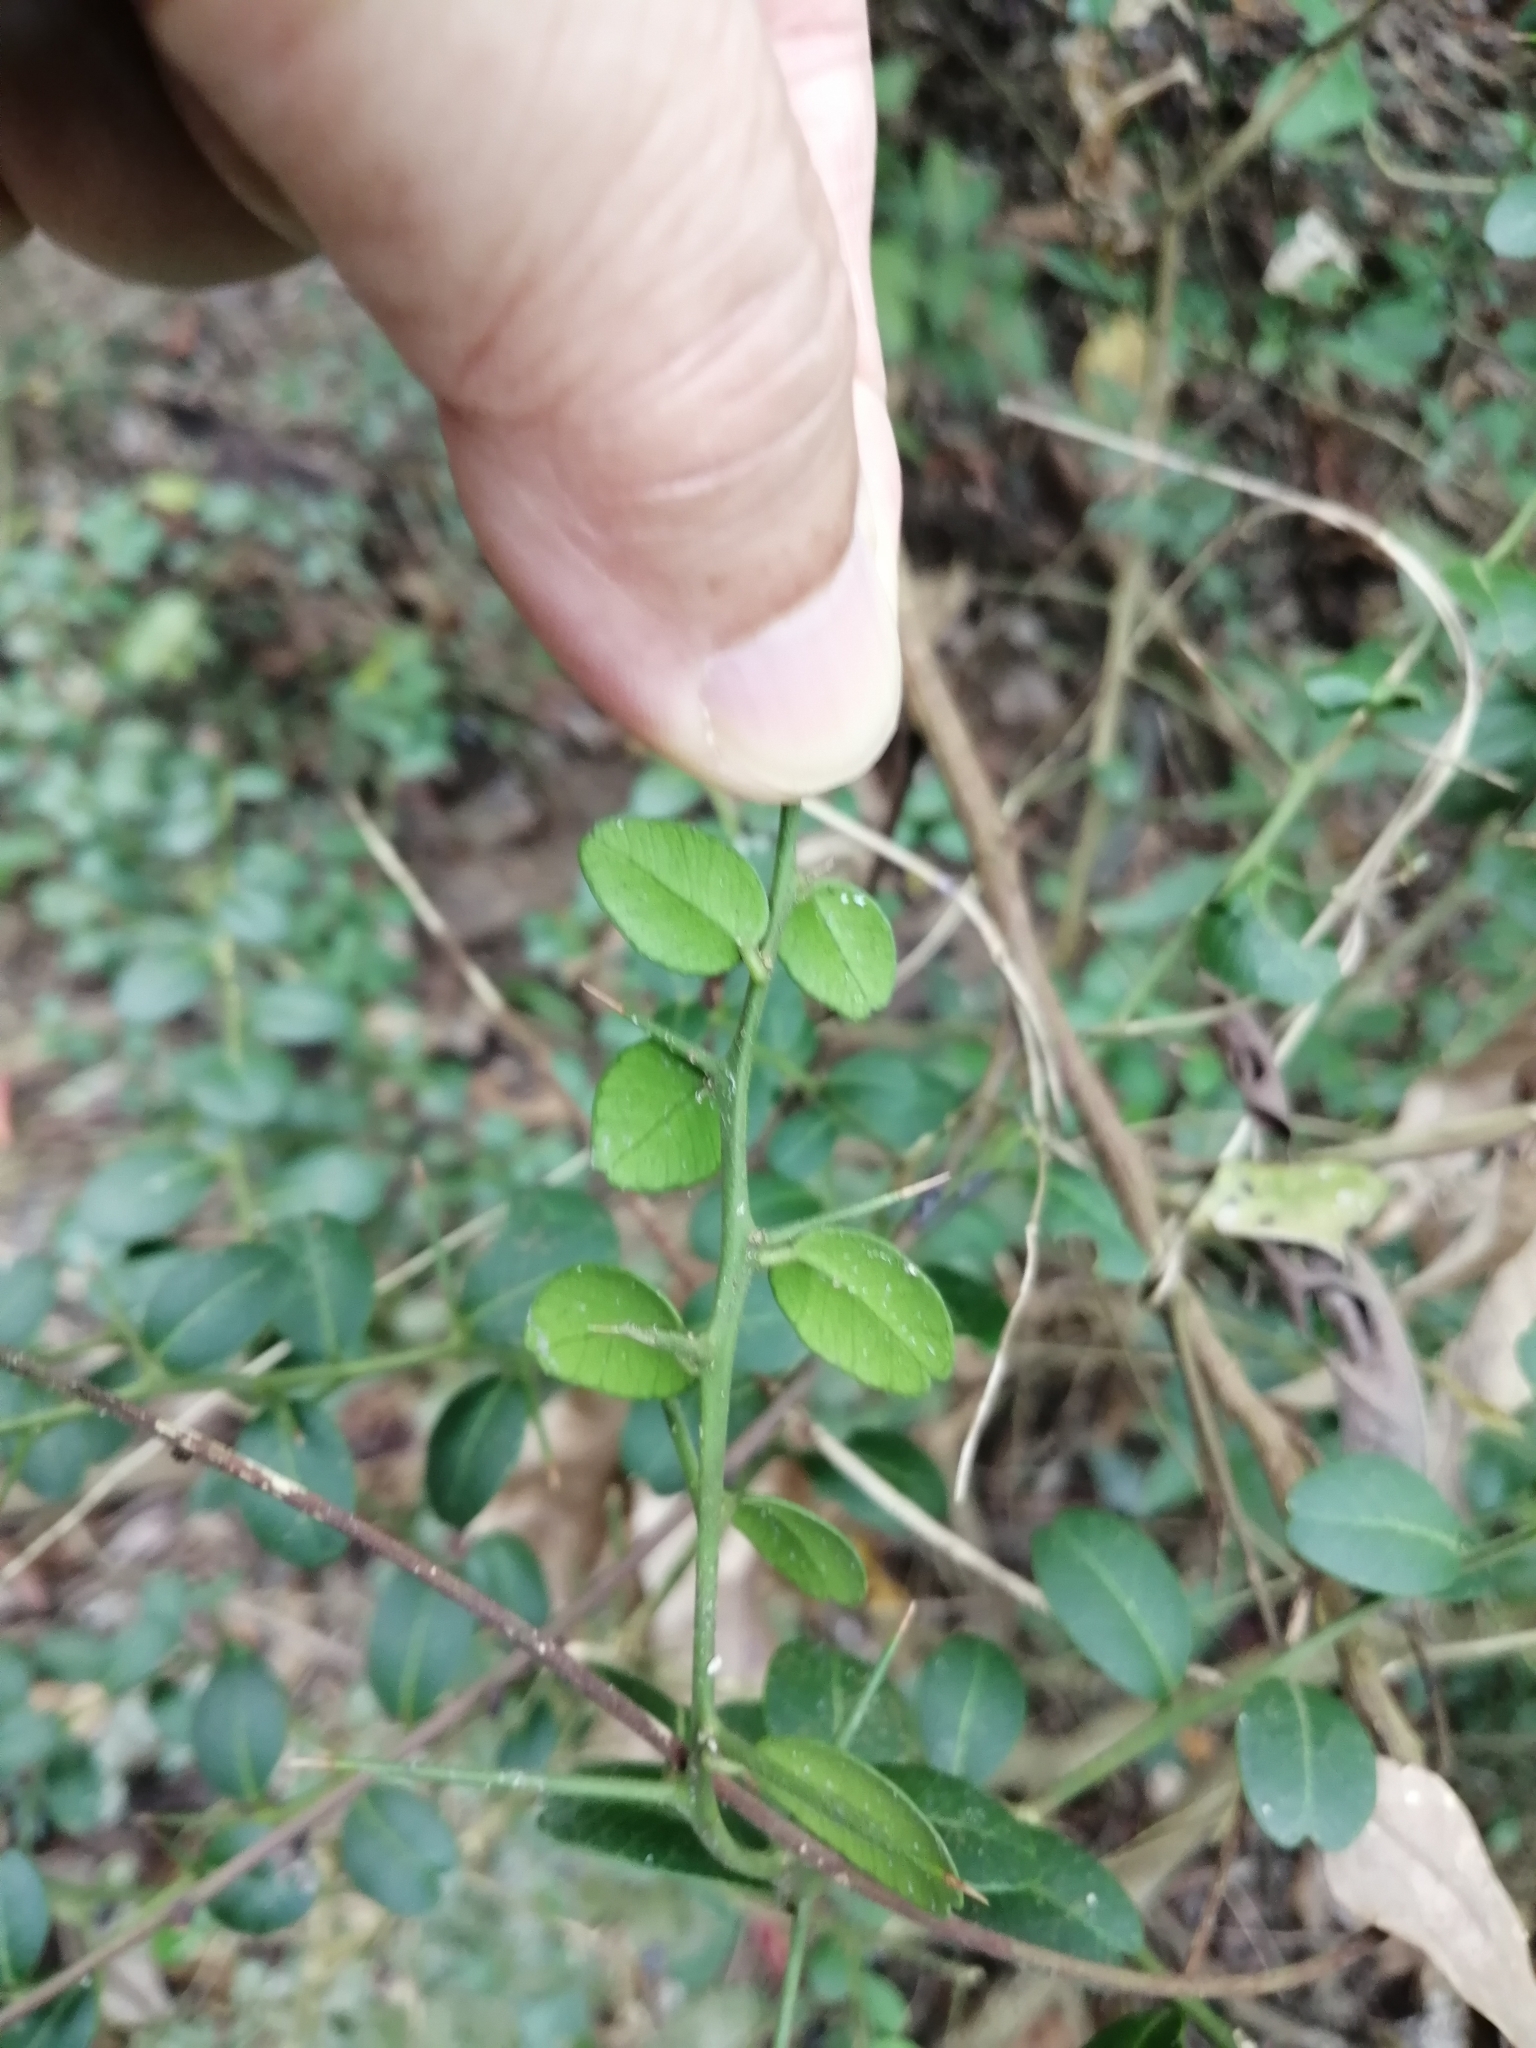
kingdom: Plantae
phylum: Tracheophyta
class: Magnoliopsida
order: Sapindales
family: Rutaceae
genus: Atalantia
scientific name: Atalantia buxifolia
